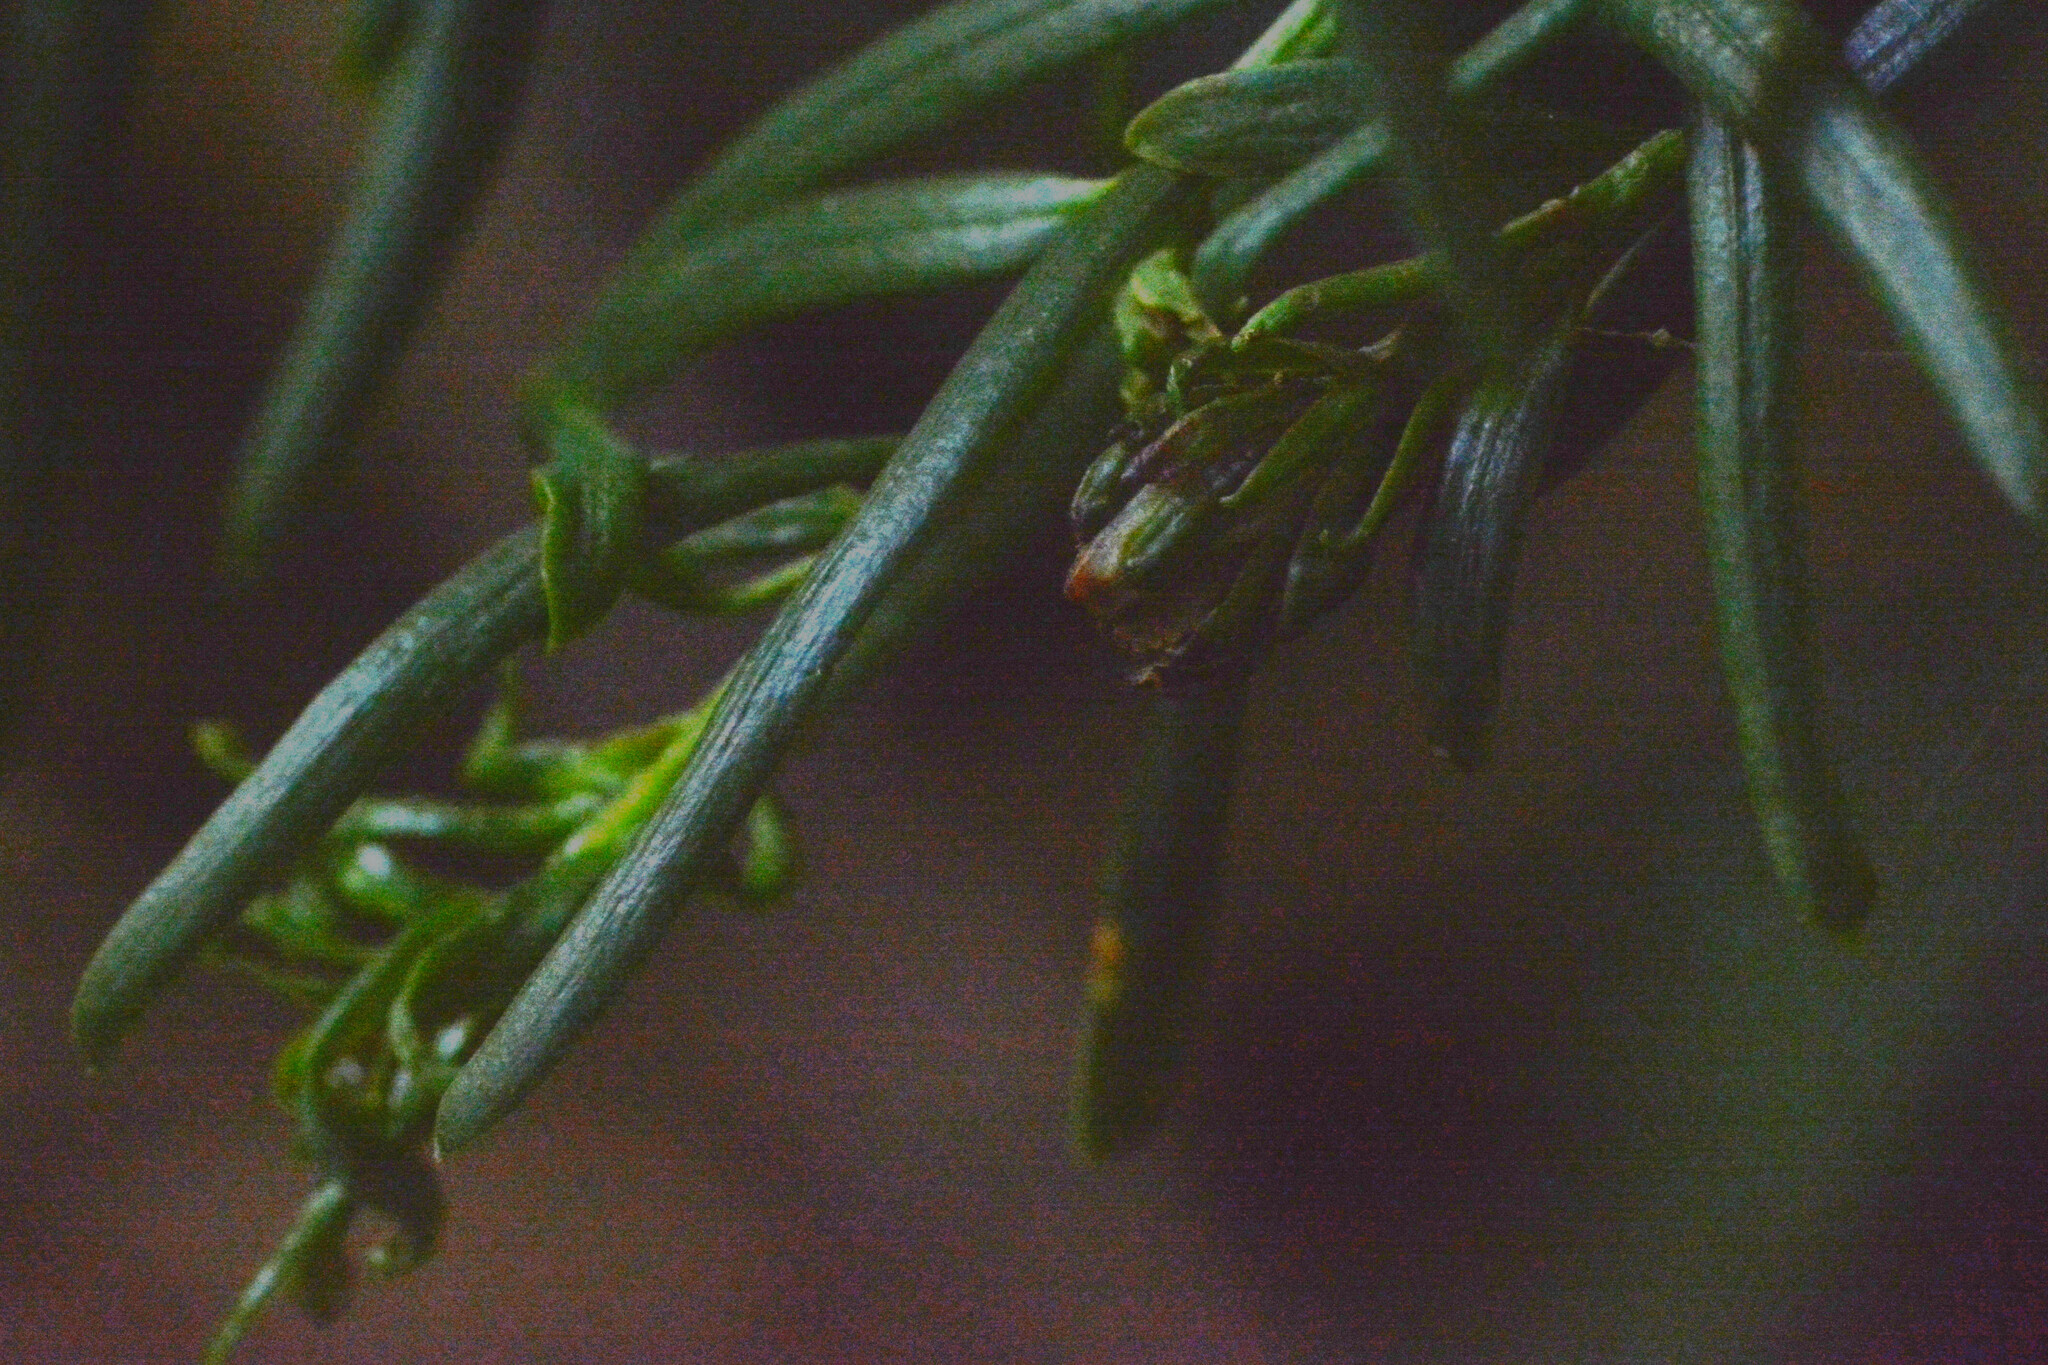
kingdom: Animalia
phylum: Arthropoda
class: Insecta
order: Diptera
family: Cecidomyiidae
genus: Taxomyia
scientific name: Taxomyia taxi
